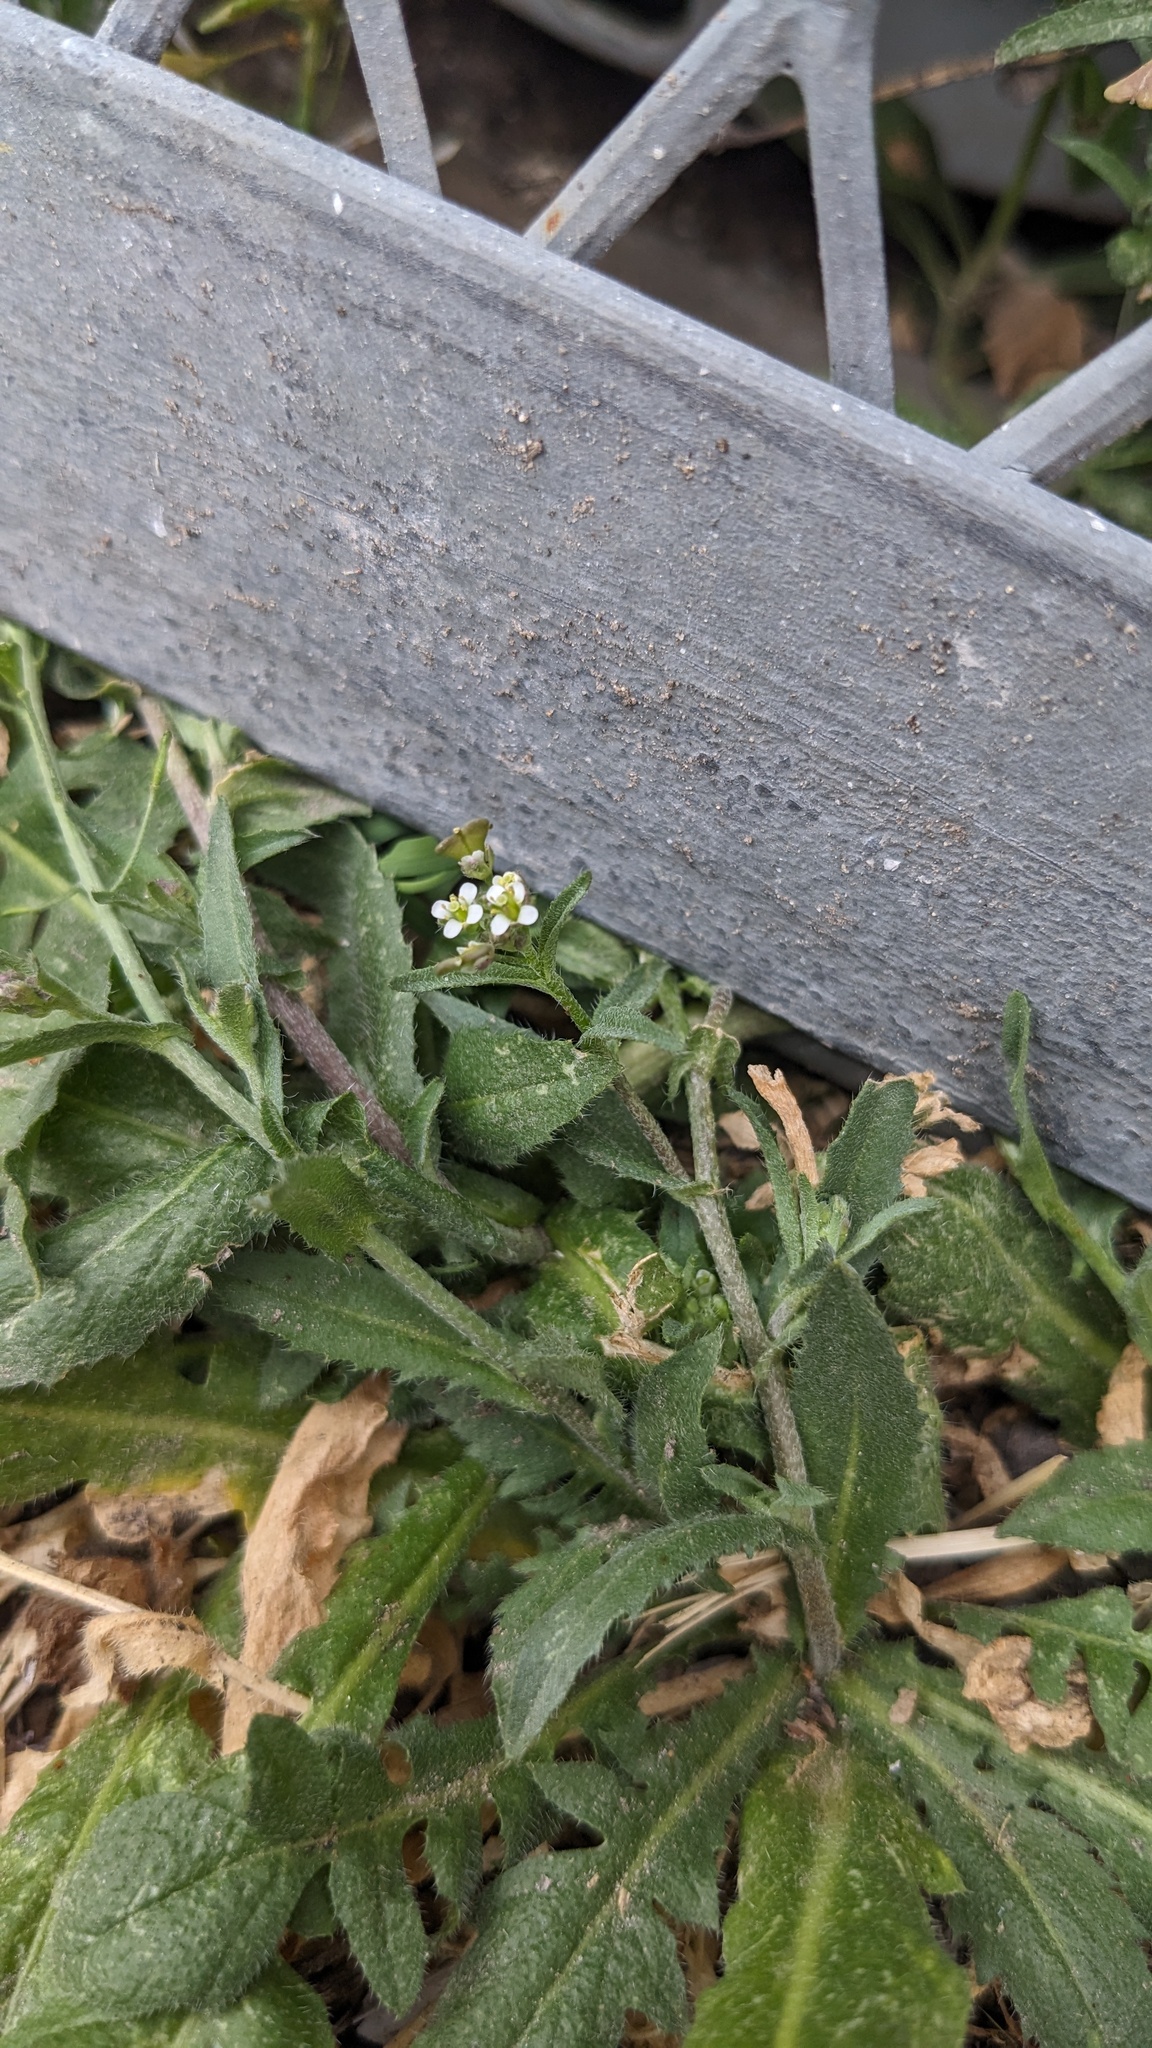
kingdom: Plantae
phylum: Tracheophyta
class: Magnoliopsida
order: Brassicales
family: Brassicaceae
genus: Capsella
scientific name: Capsella bursa-pastoris
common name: Shepherd's purse
